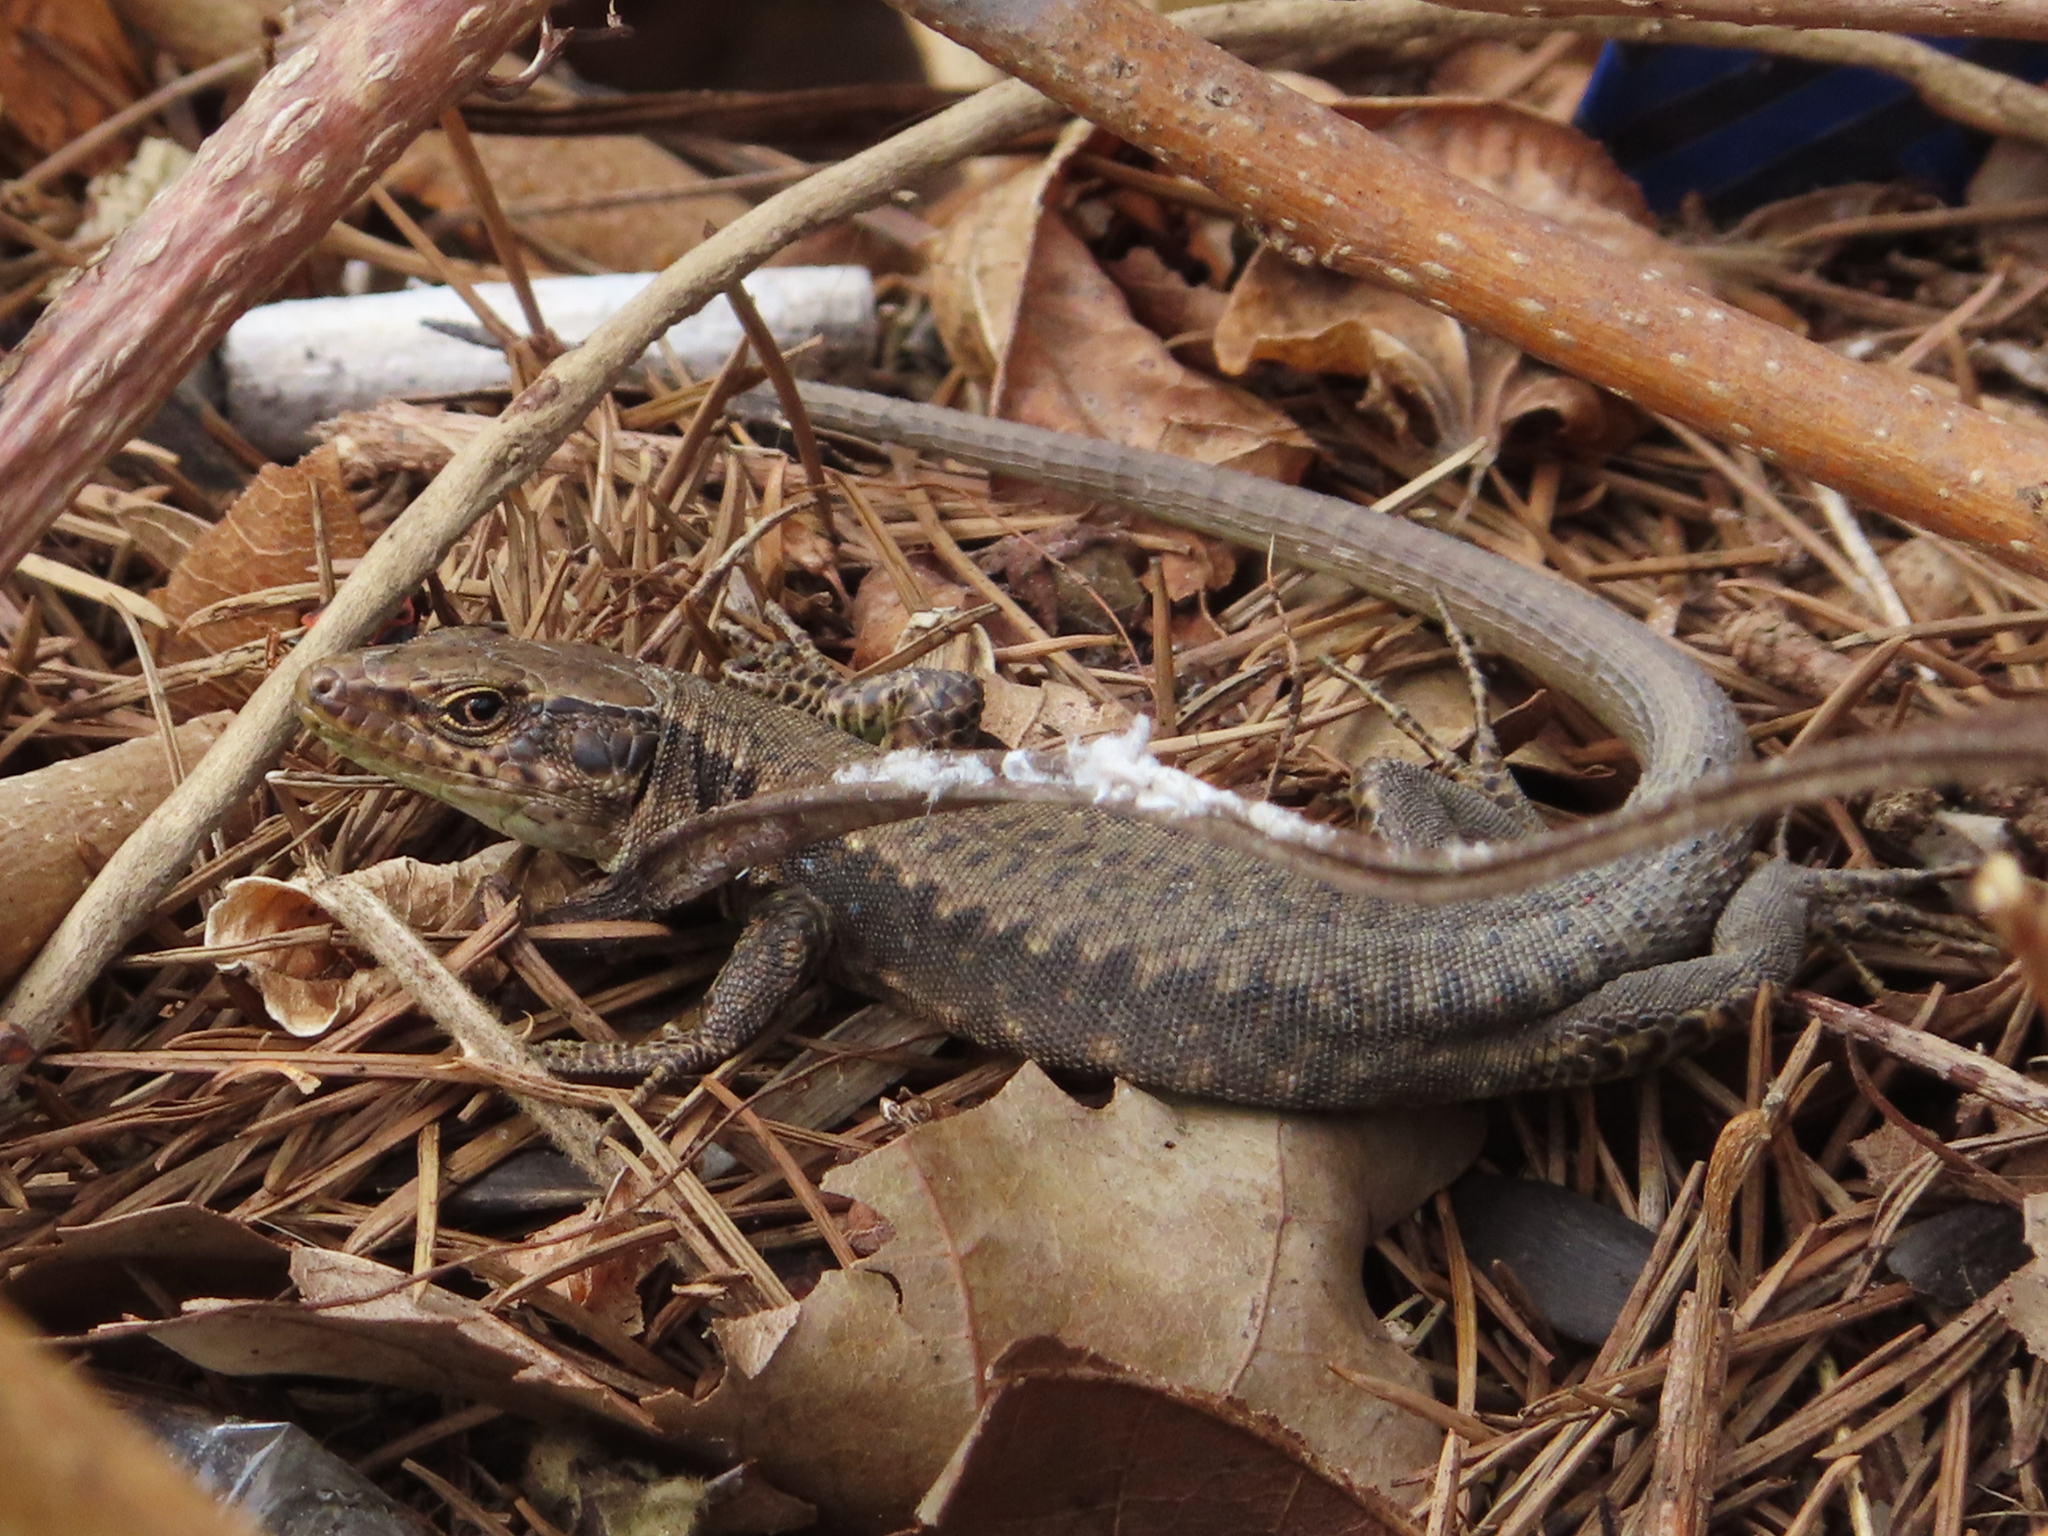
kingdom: Animalia
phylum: Chordata
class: Squamata
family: Lacertidae
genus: Darevskia
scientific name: Darevskia mixta
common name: Ajarian lizard
